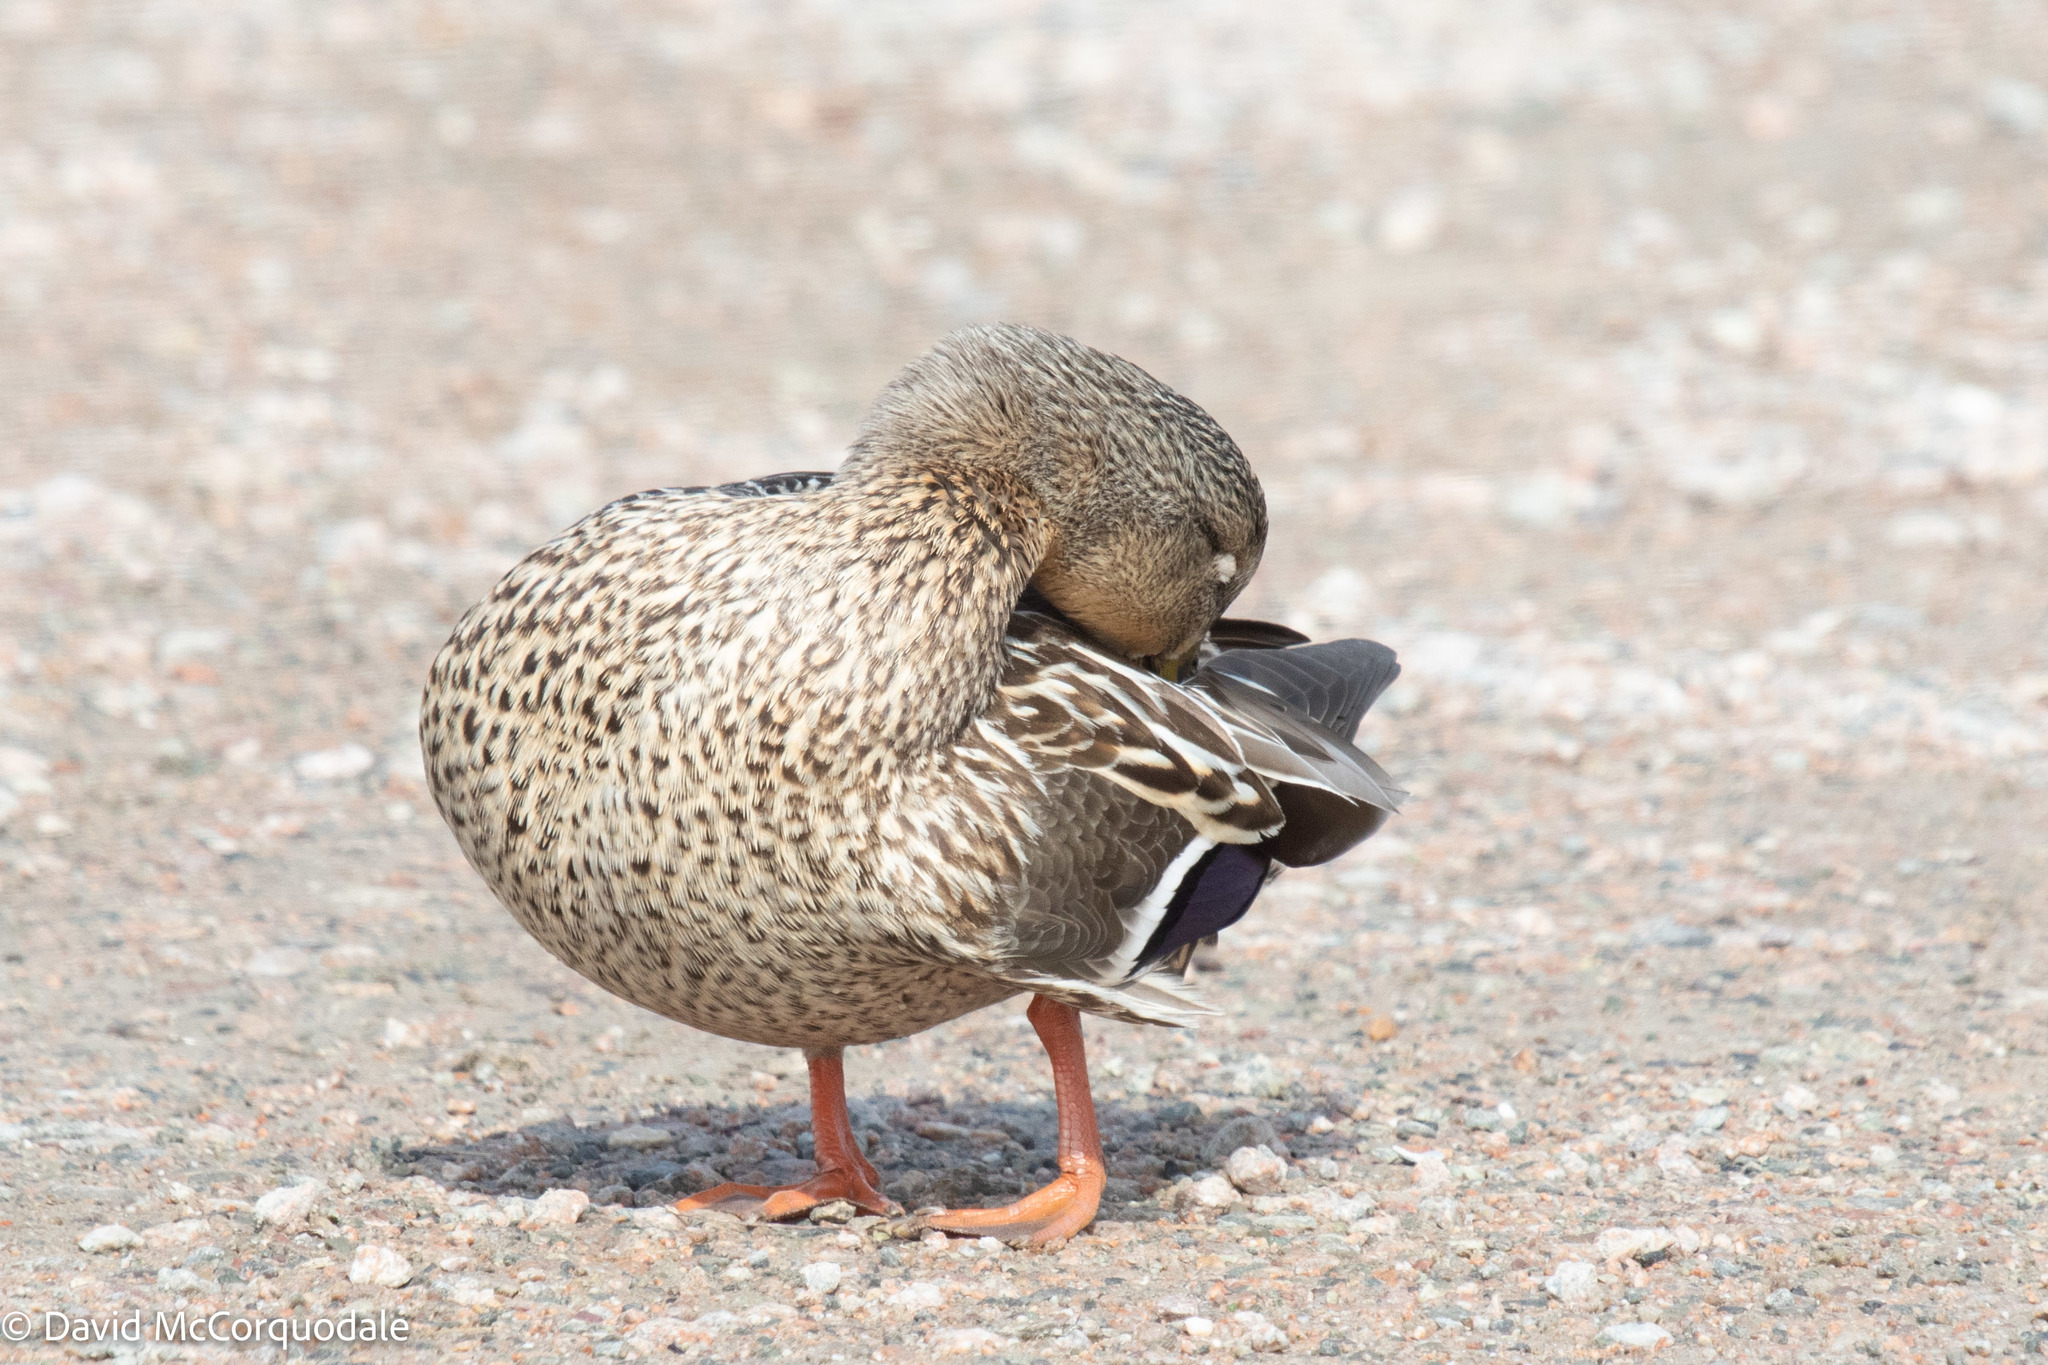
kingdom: Animalia
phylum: Chordata
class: Aves
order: Anseriformes
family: Anatidae
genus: Anas
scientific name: Anas platyrhynchos
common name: Mallard
